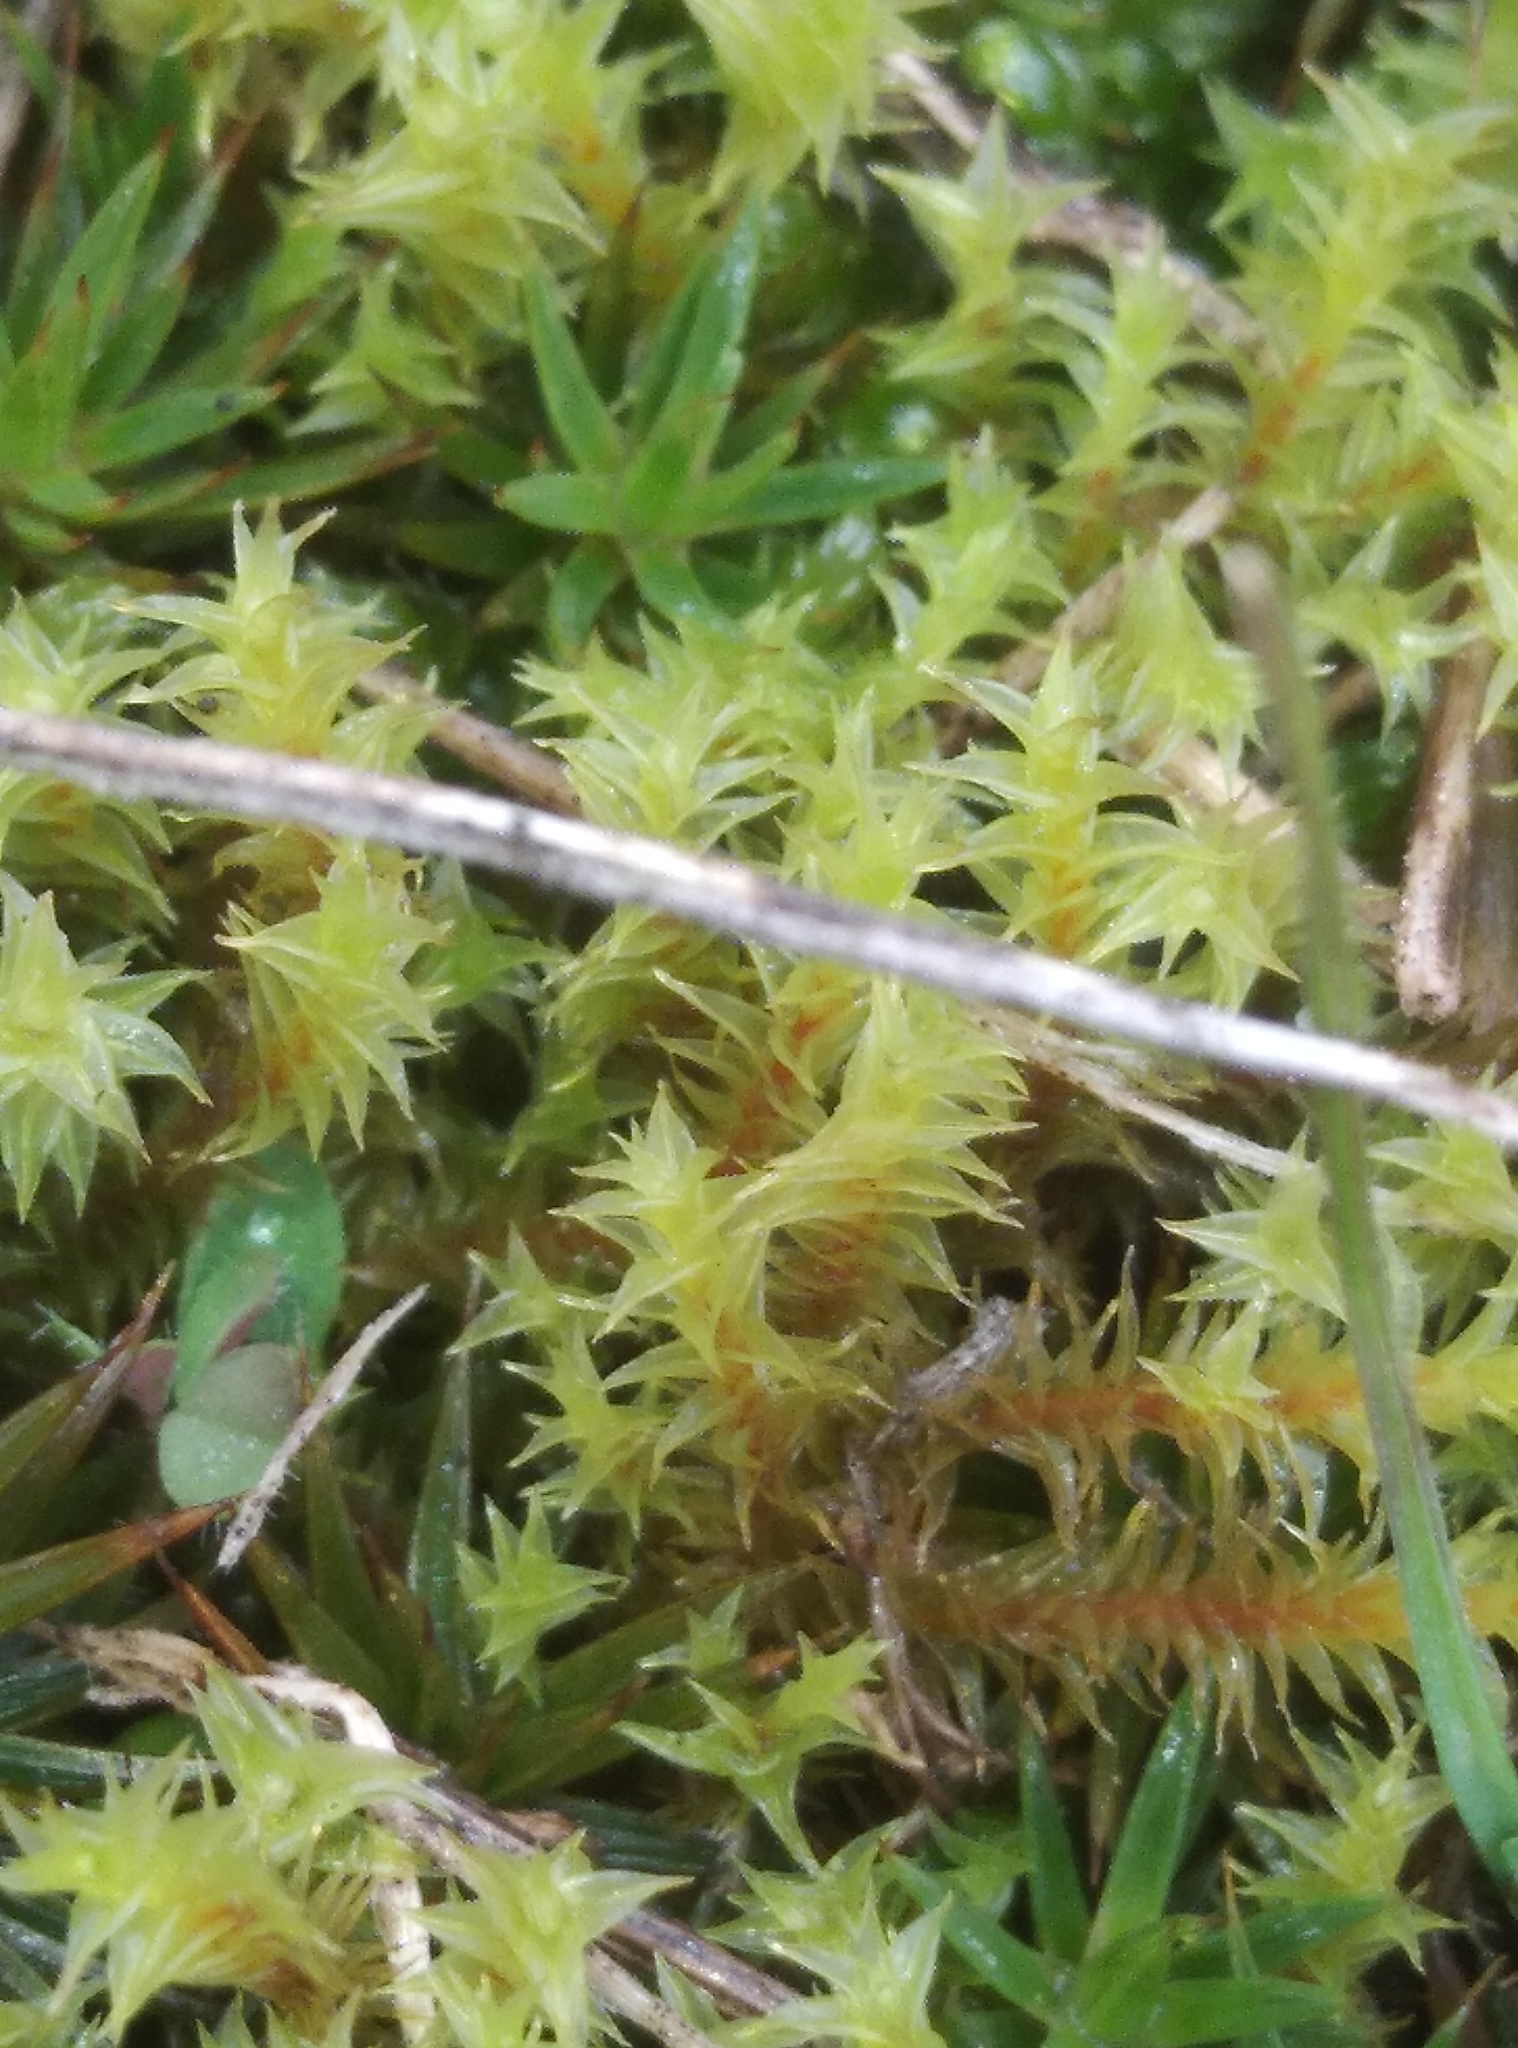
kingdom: Plantae
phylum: Bryophyta
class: Bryopsida
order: Pottiales
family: Pottiaceae
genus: Triquetrella
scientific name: Triquetrella papillata
